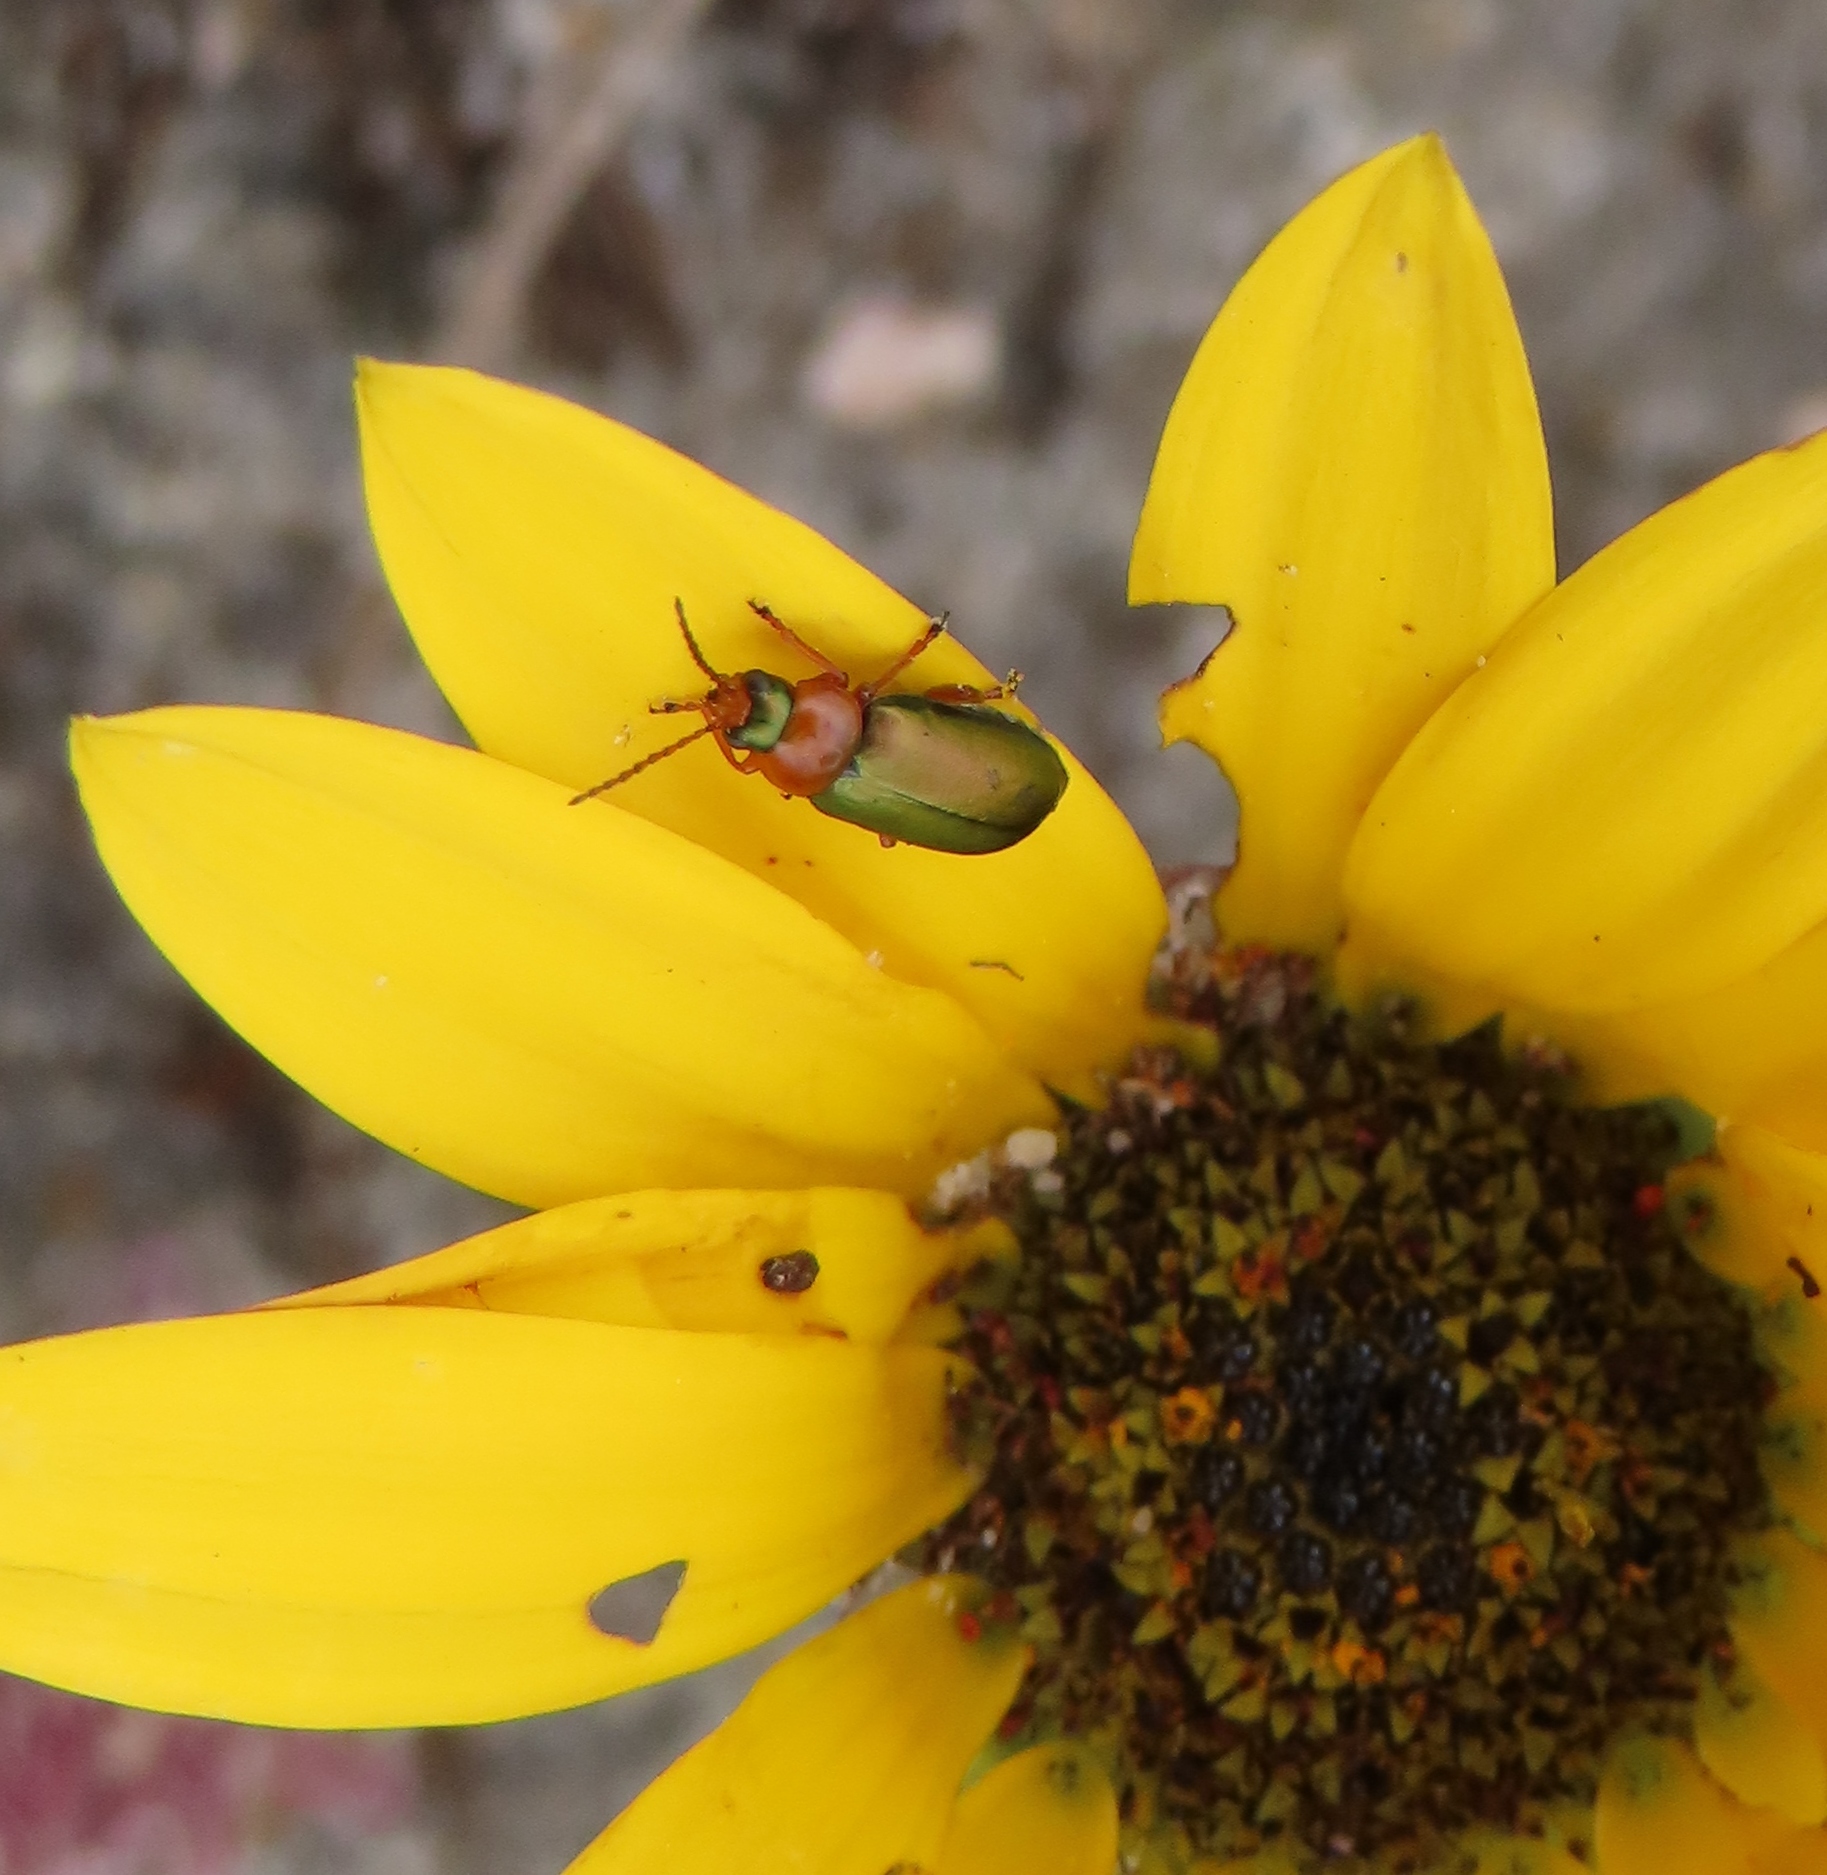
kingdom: Animalia
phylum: Arthropoda
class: Insecta
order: Coleoptera
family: Chrysomelidae
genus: Palaeophylia
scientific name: Palaeophylia
